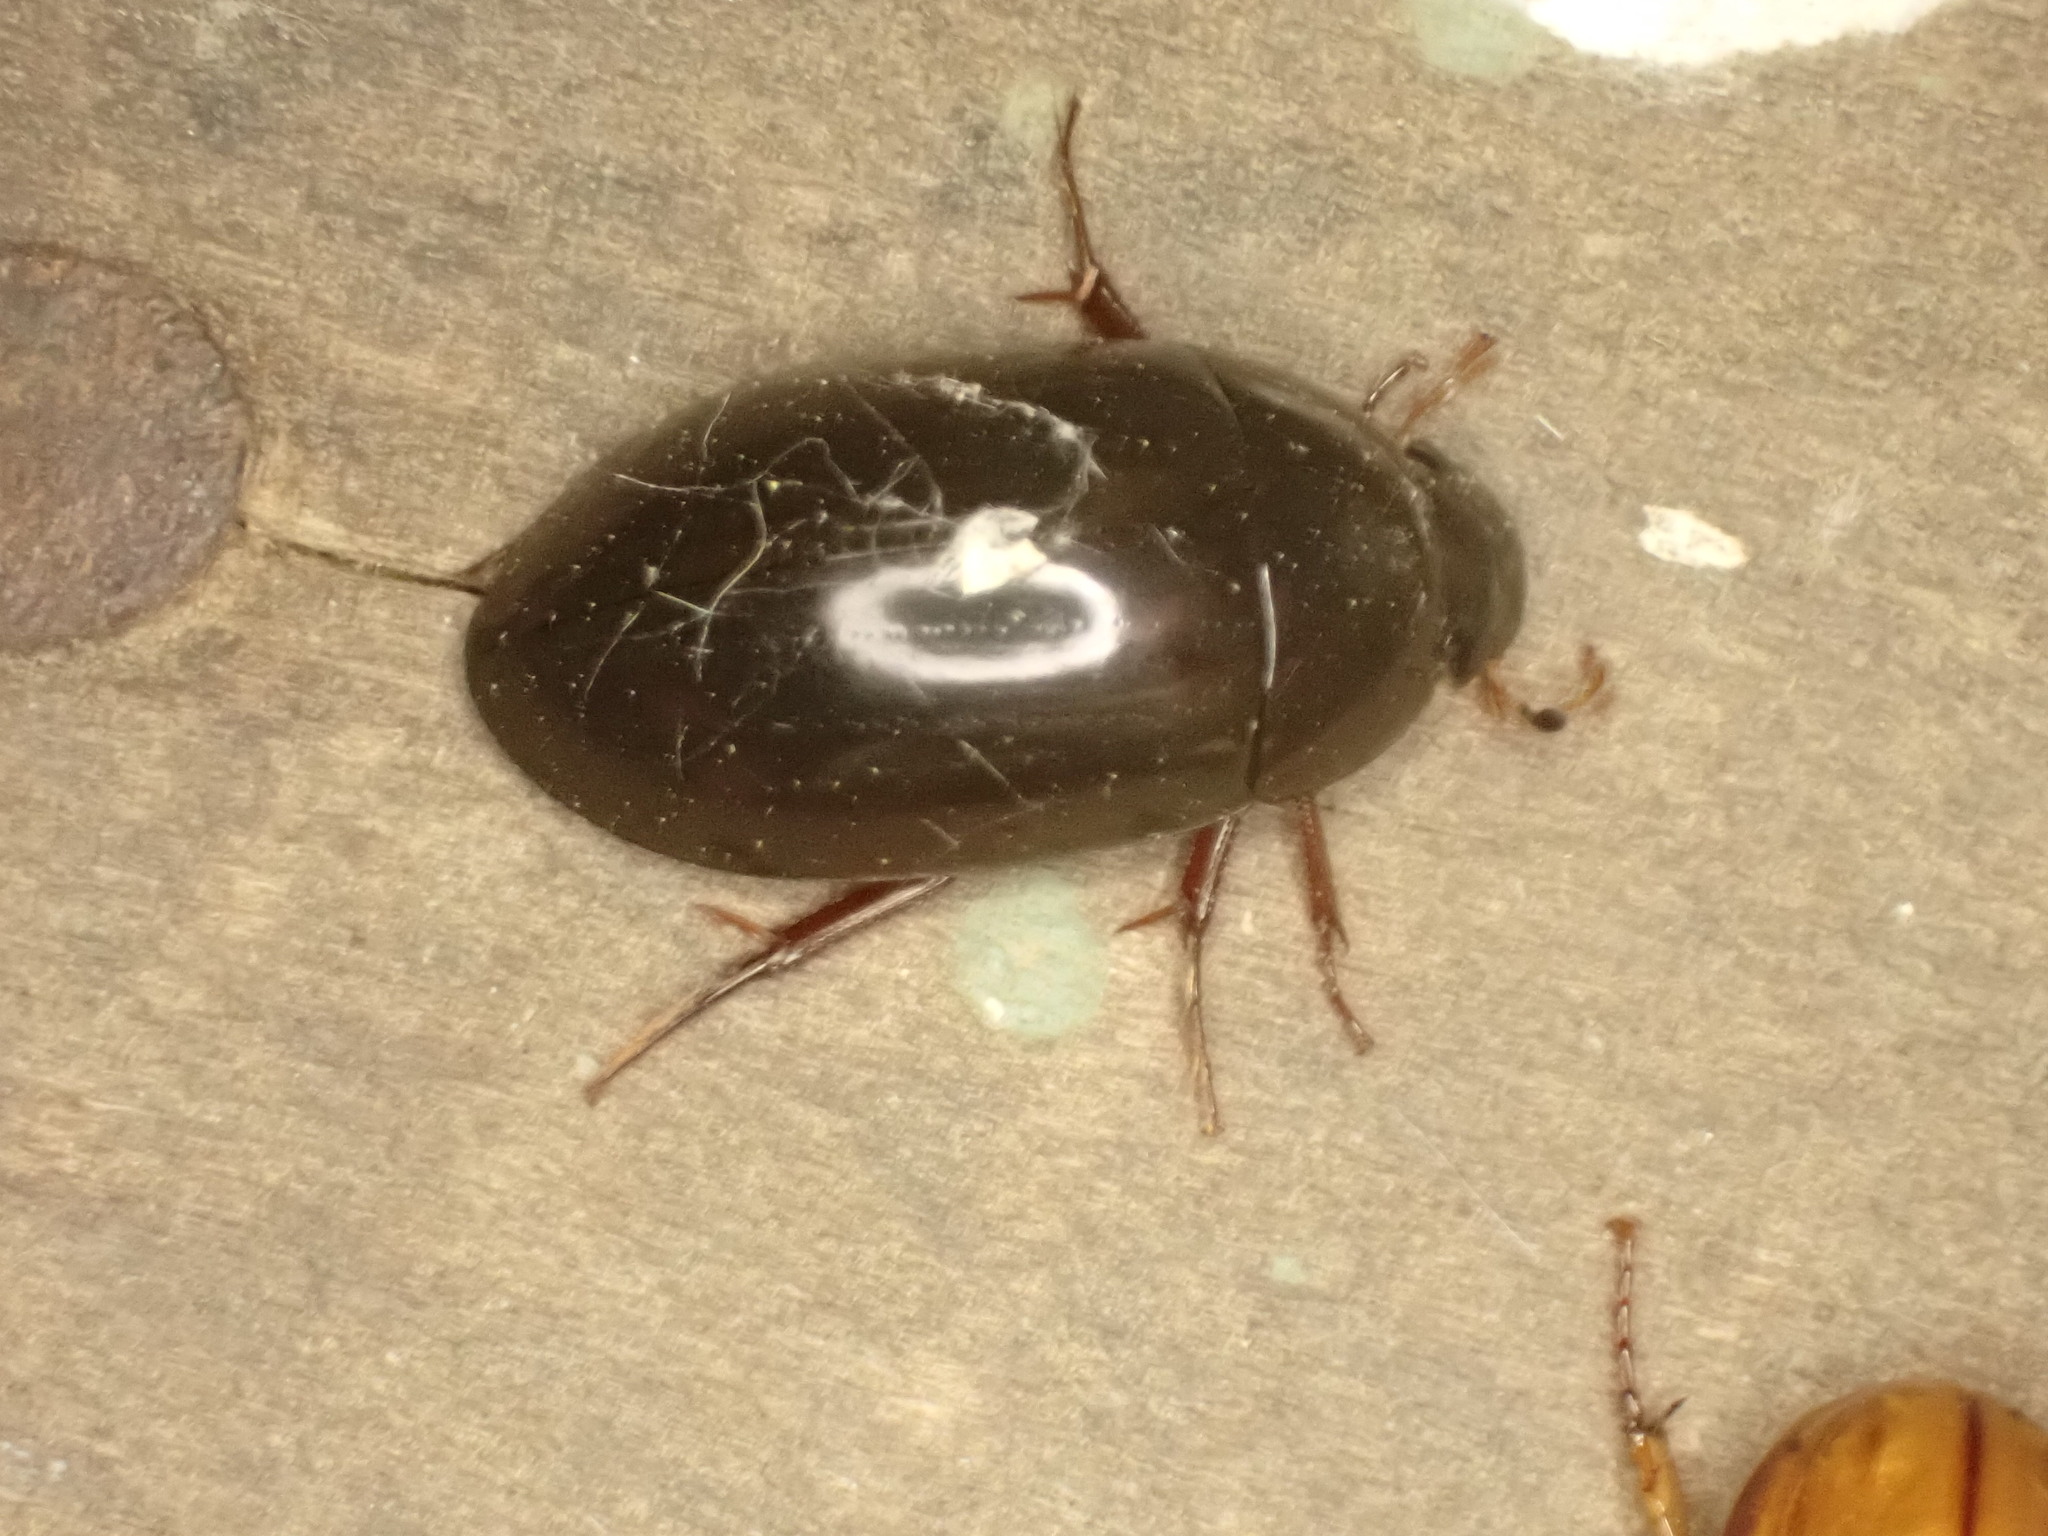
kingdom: Animalia
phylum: Arthropoda
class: Insecta
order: Coleoptera
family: Hydrophilidae
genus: Hydrochara
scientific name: Hydrochara
